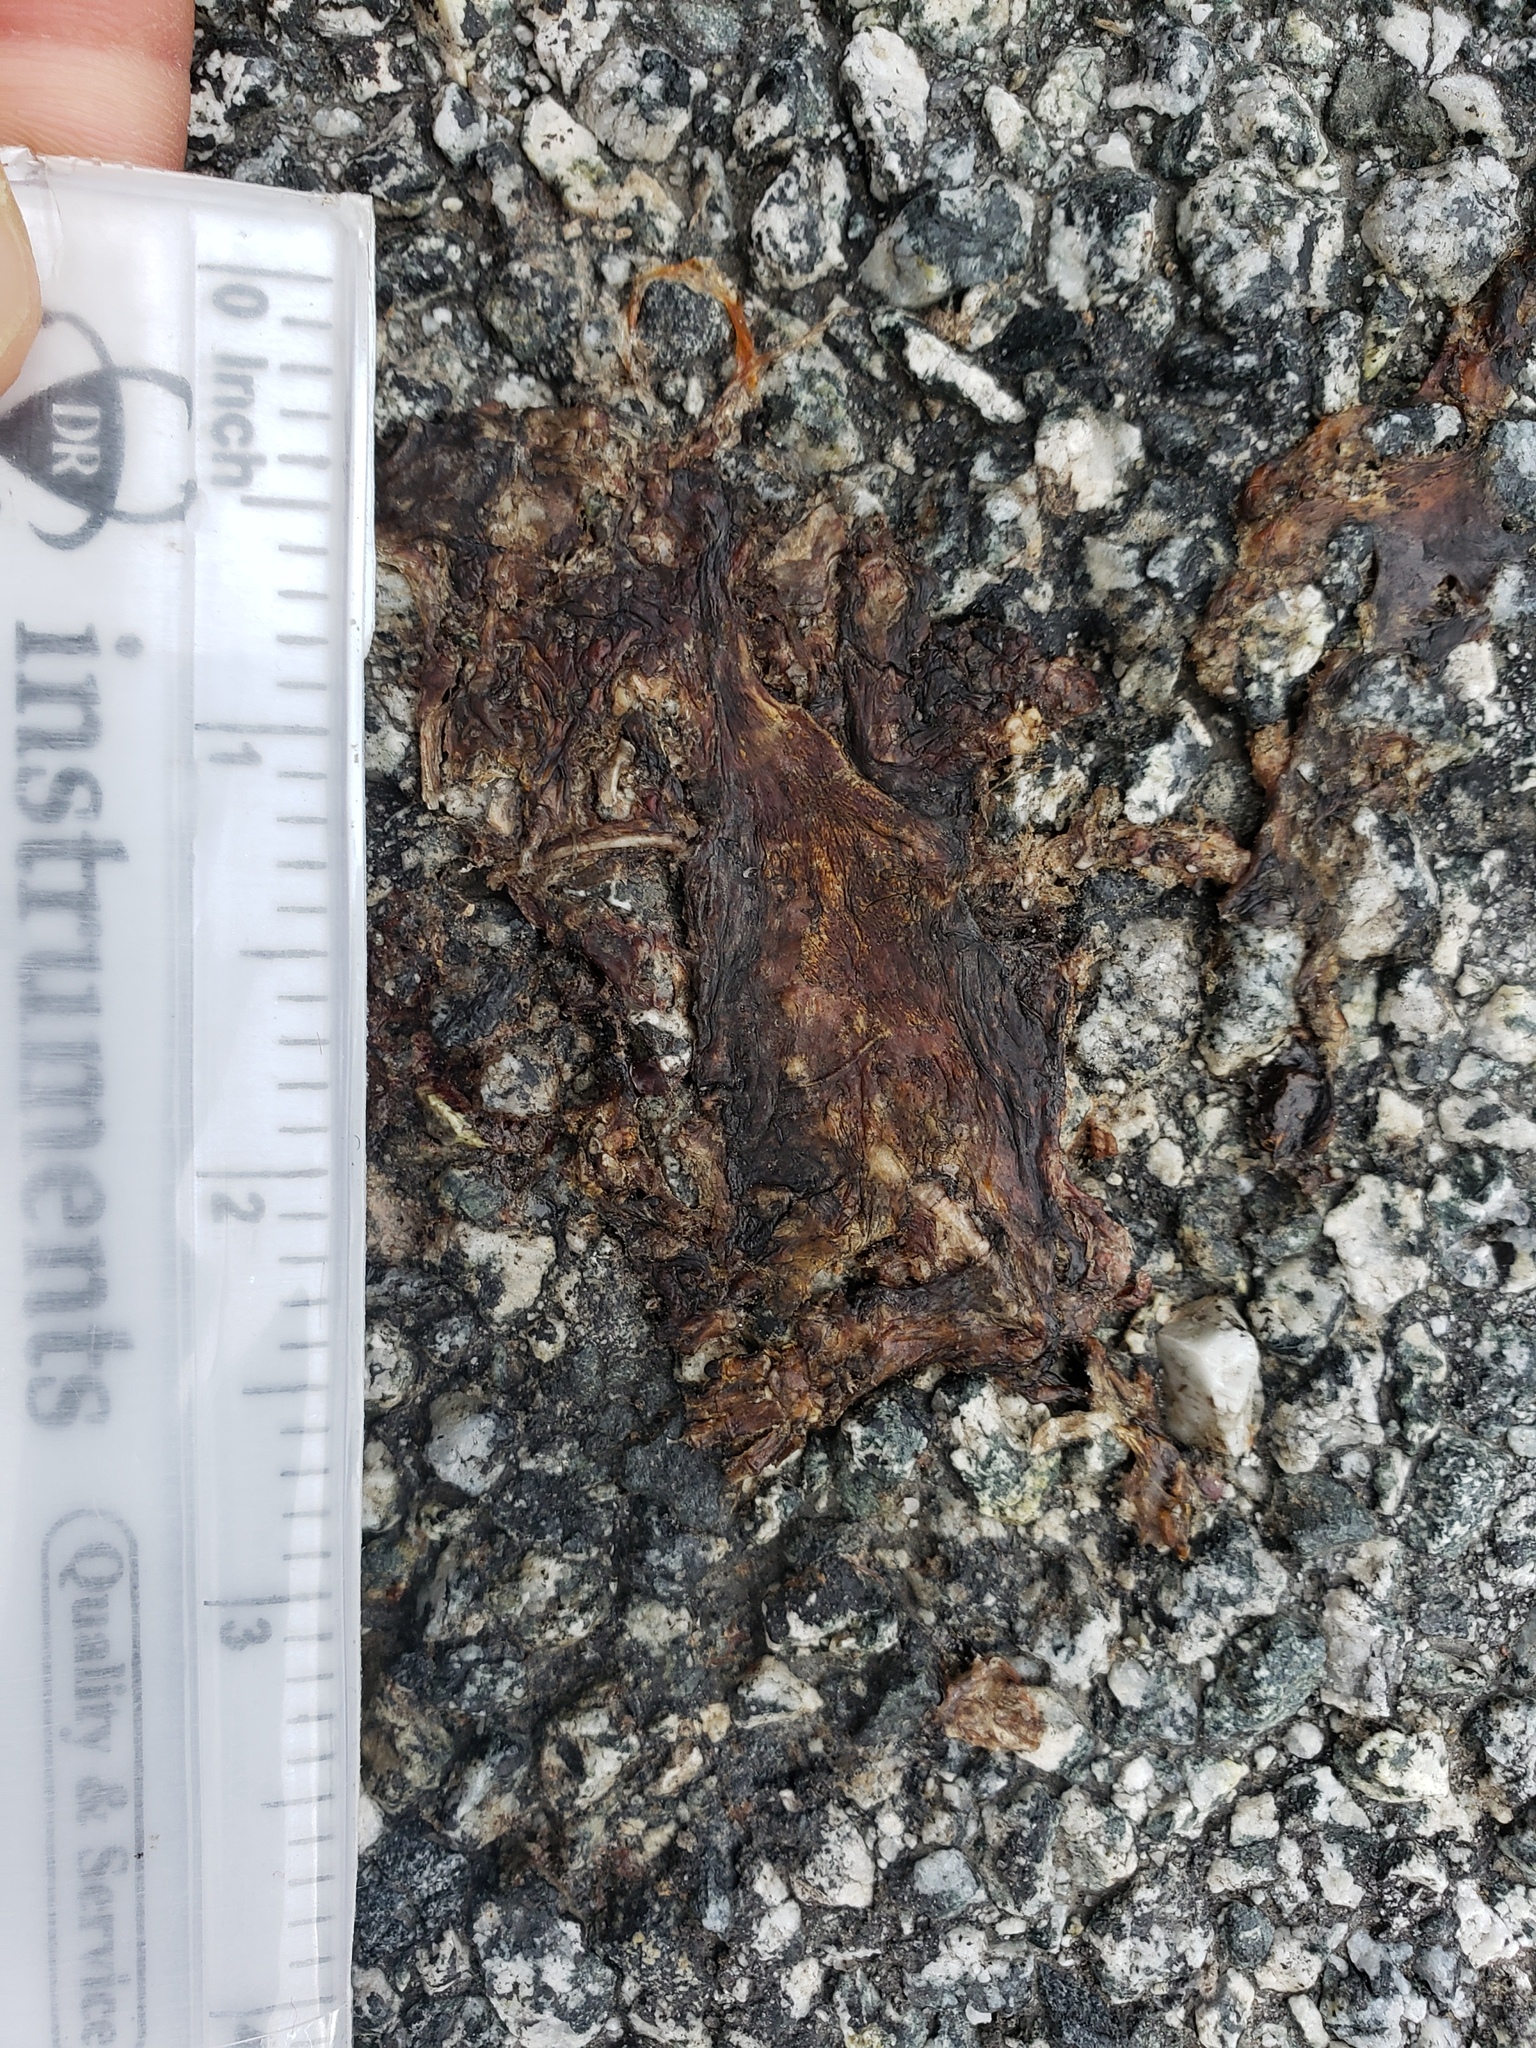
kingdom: Animalia
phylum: Chordata
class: Amphibia
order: Caudata
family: Salamandridae
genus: Taricha
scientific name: Taricha
